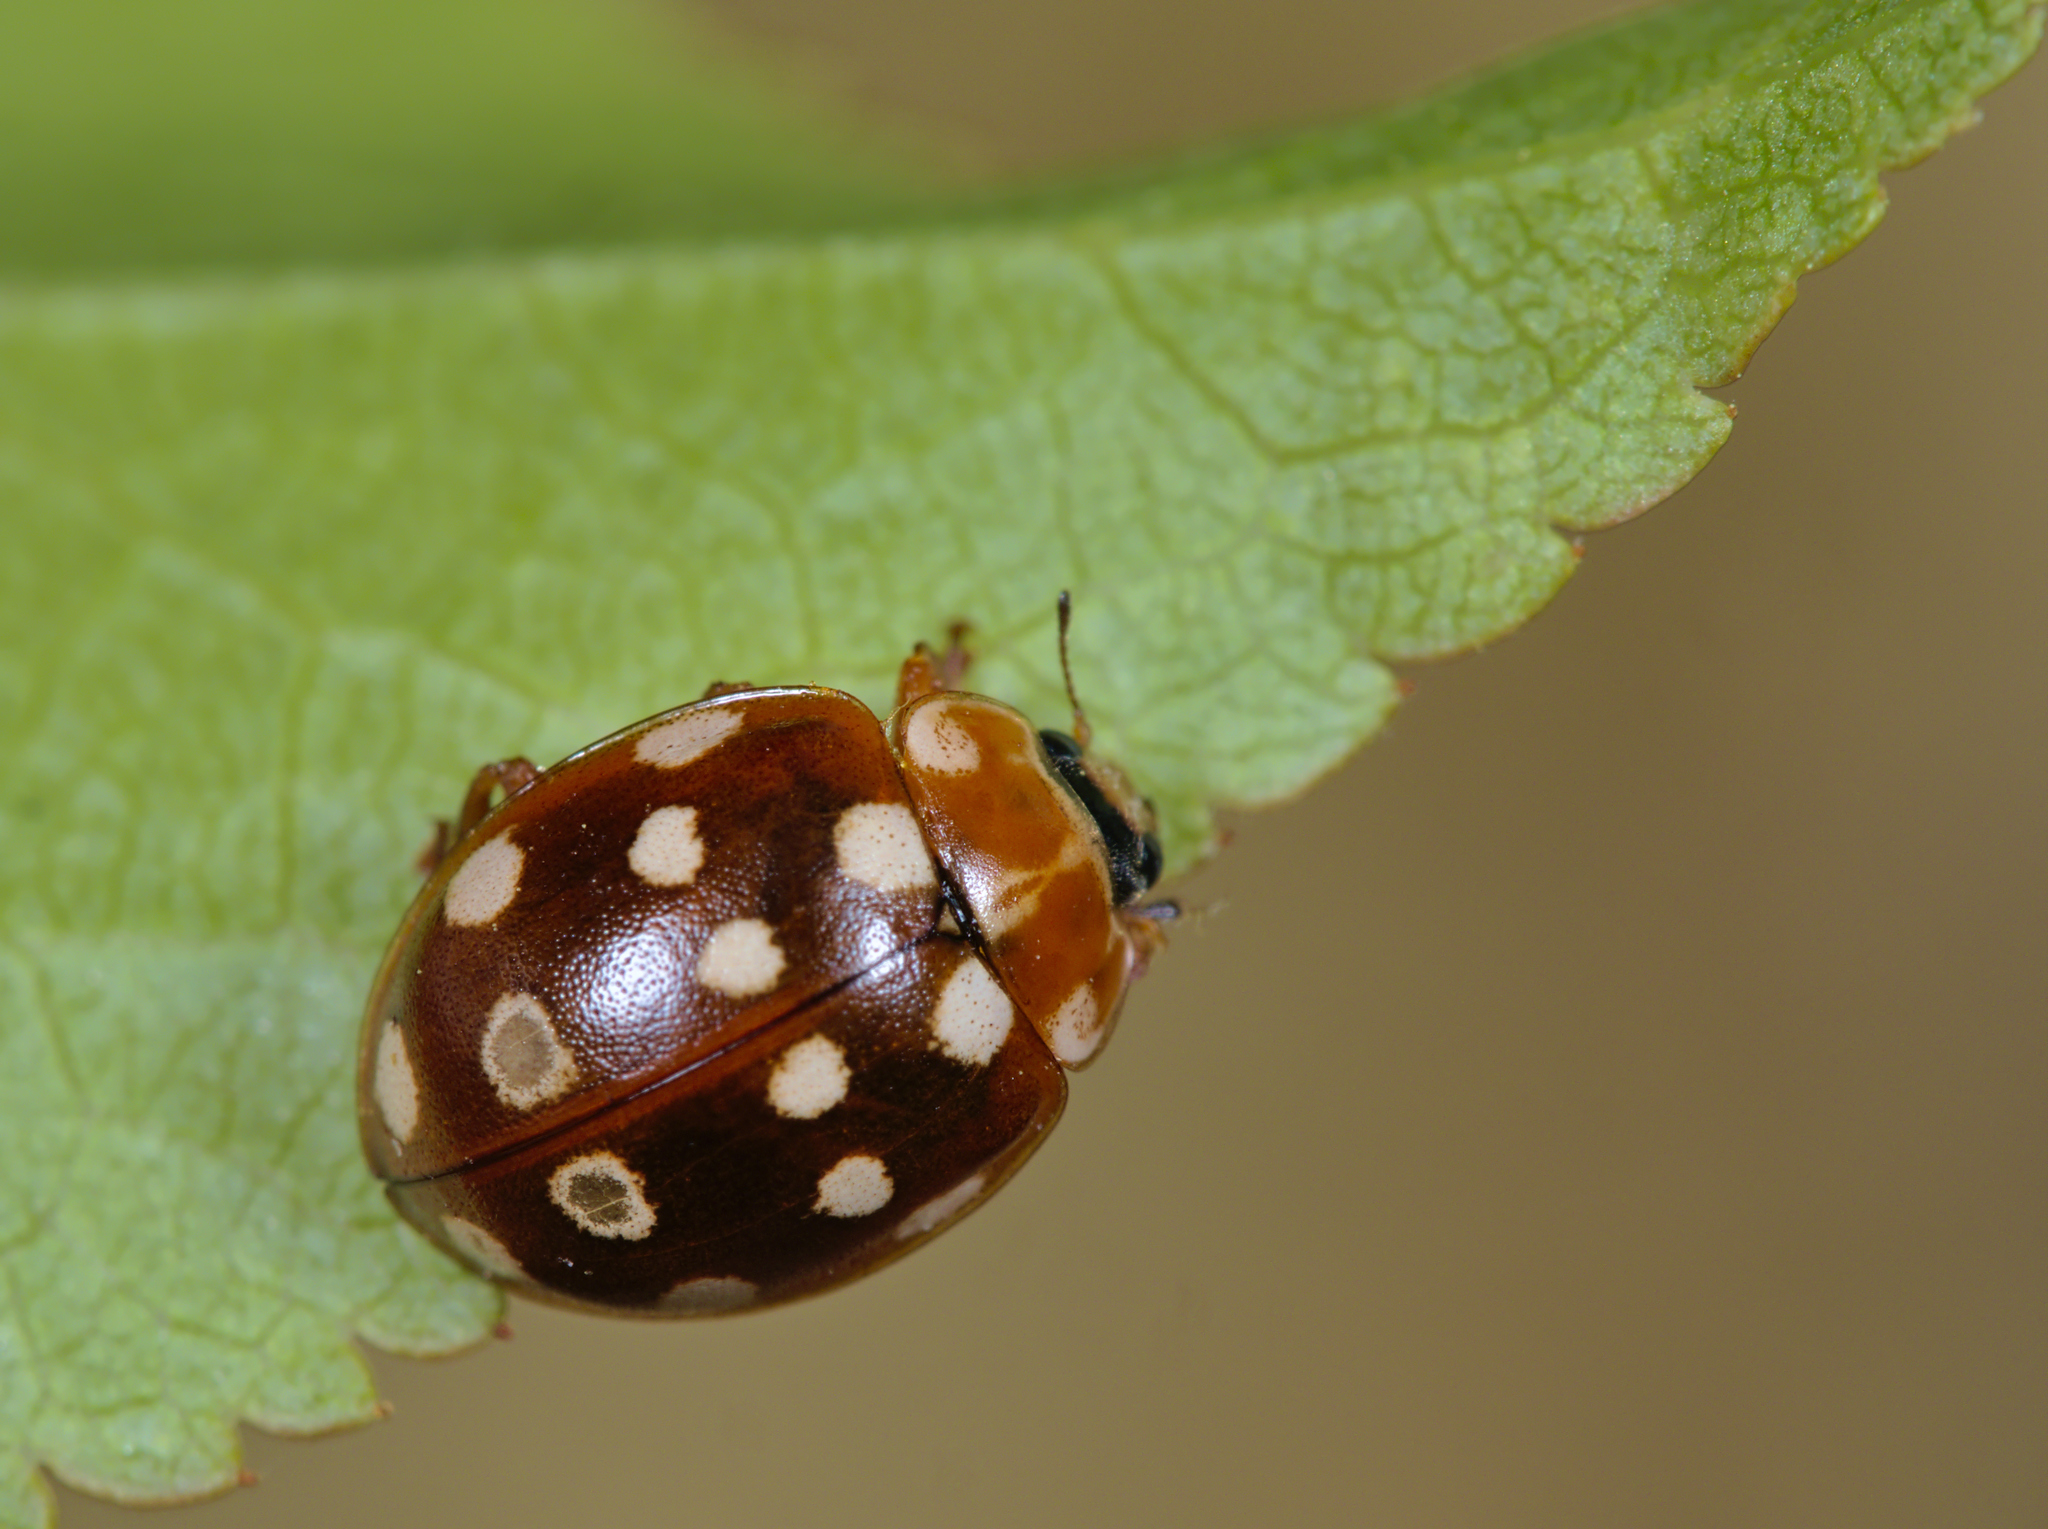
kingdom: Animalia
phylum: Arthropoda
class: Insecta
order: Coleoptera
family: Coccinellidae
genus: Calvia
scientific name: Calvia quatuordecimguttata
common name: Cream-spot ladybird
